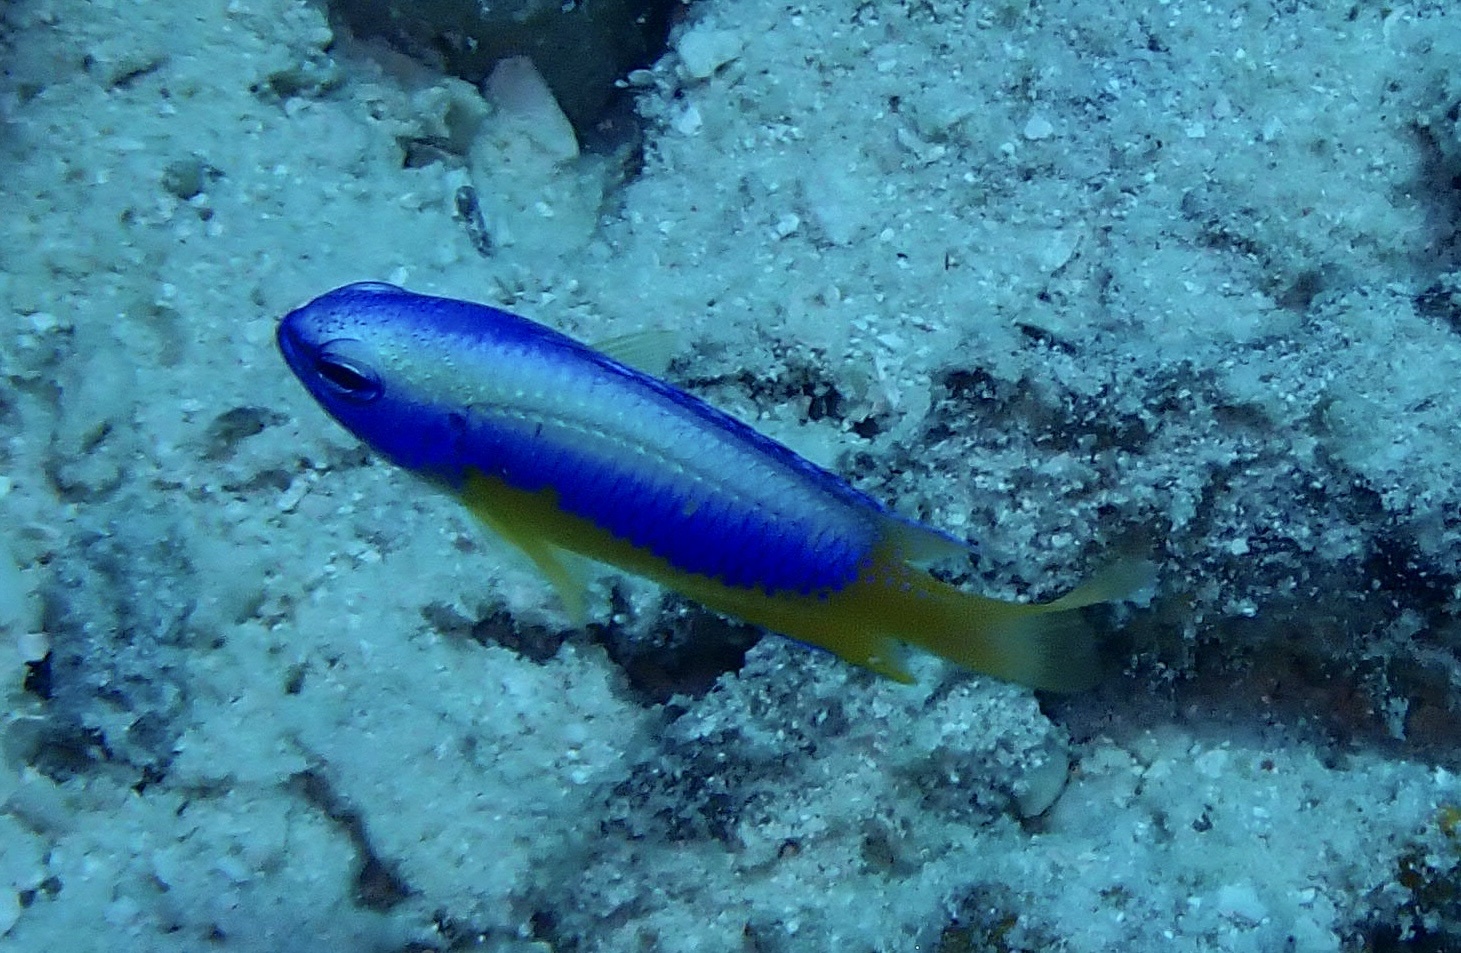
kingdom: Animalia
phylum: Chordata
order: Perciformes
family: Pomacentridae
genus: Pomacentrus
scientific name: Pomacentrus auriventris
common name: Goldbelly damsel
